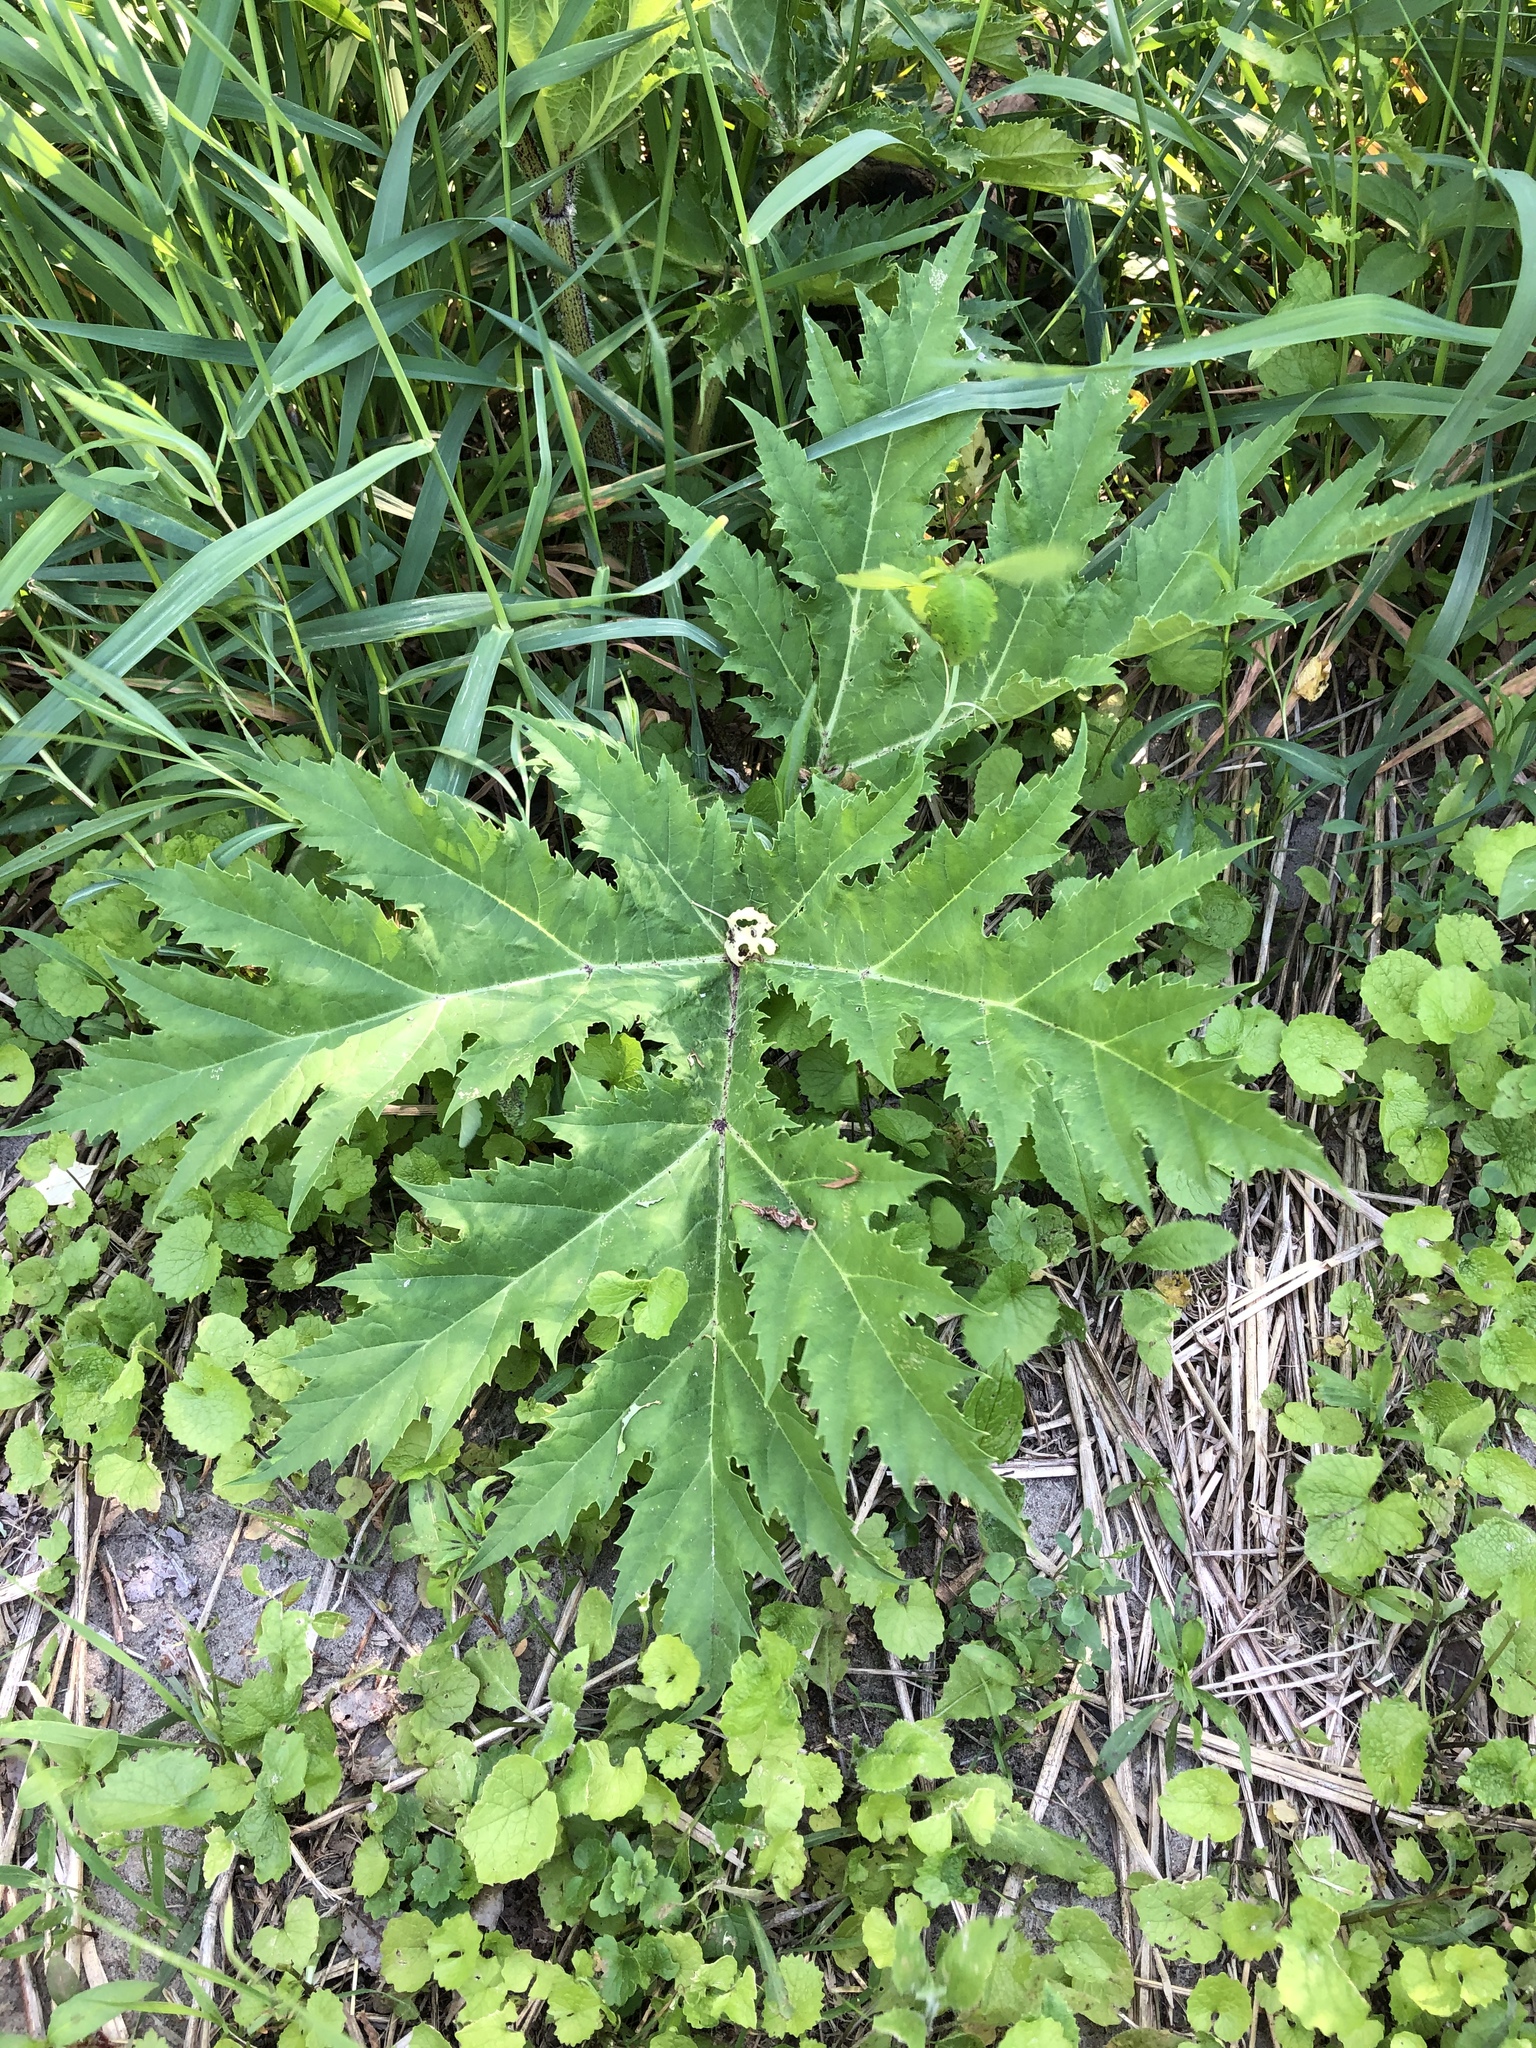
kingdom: Plantae
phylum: Tracheophyta
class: Magnoliopsida
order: Apiales
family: Apiaceae
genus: Heracleum
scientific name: Heracleum mantegazzianum
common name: Giant hogweed
